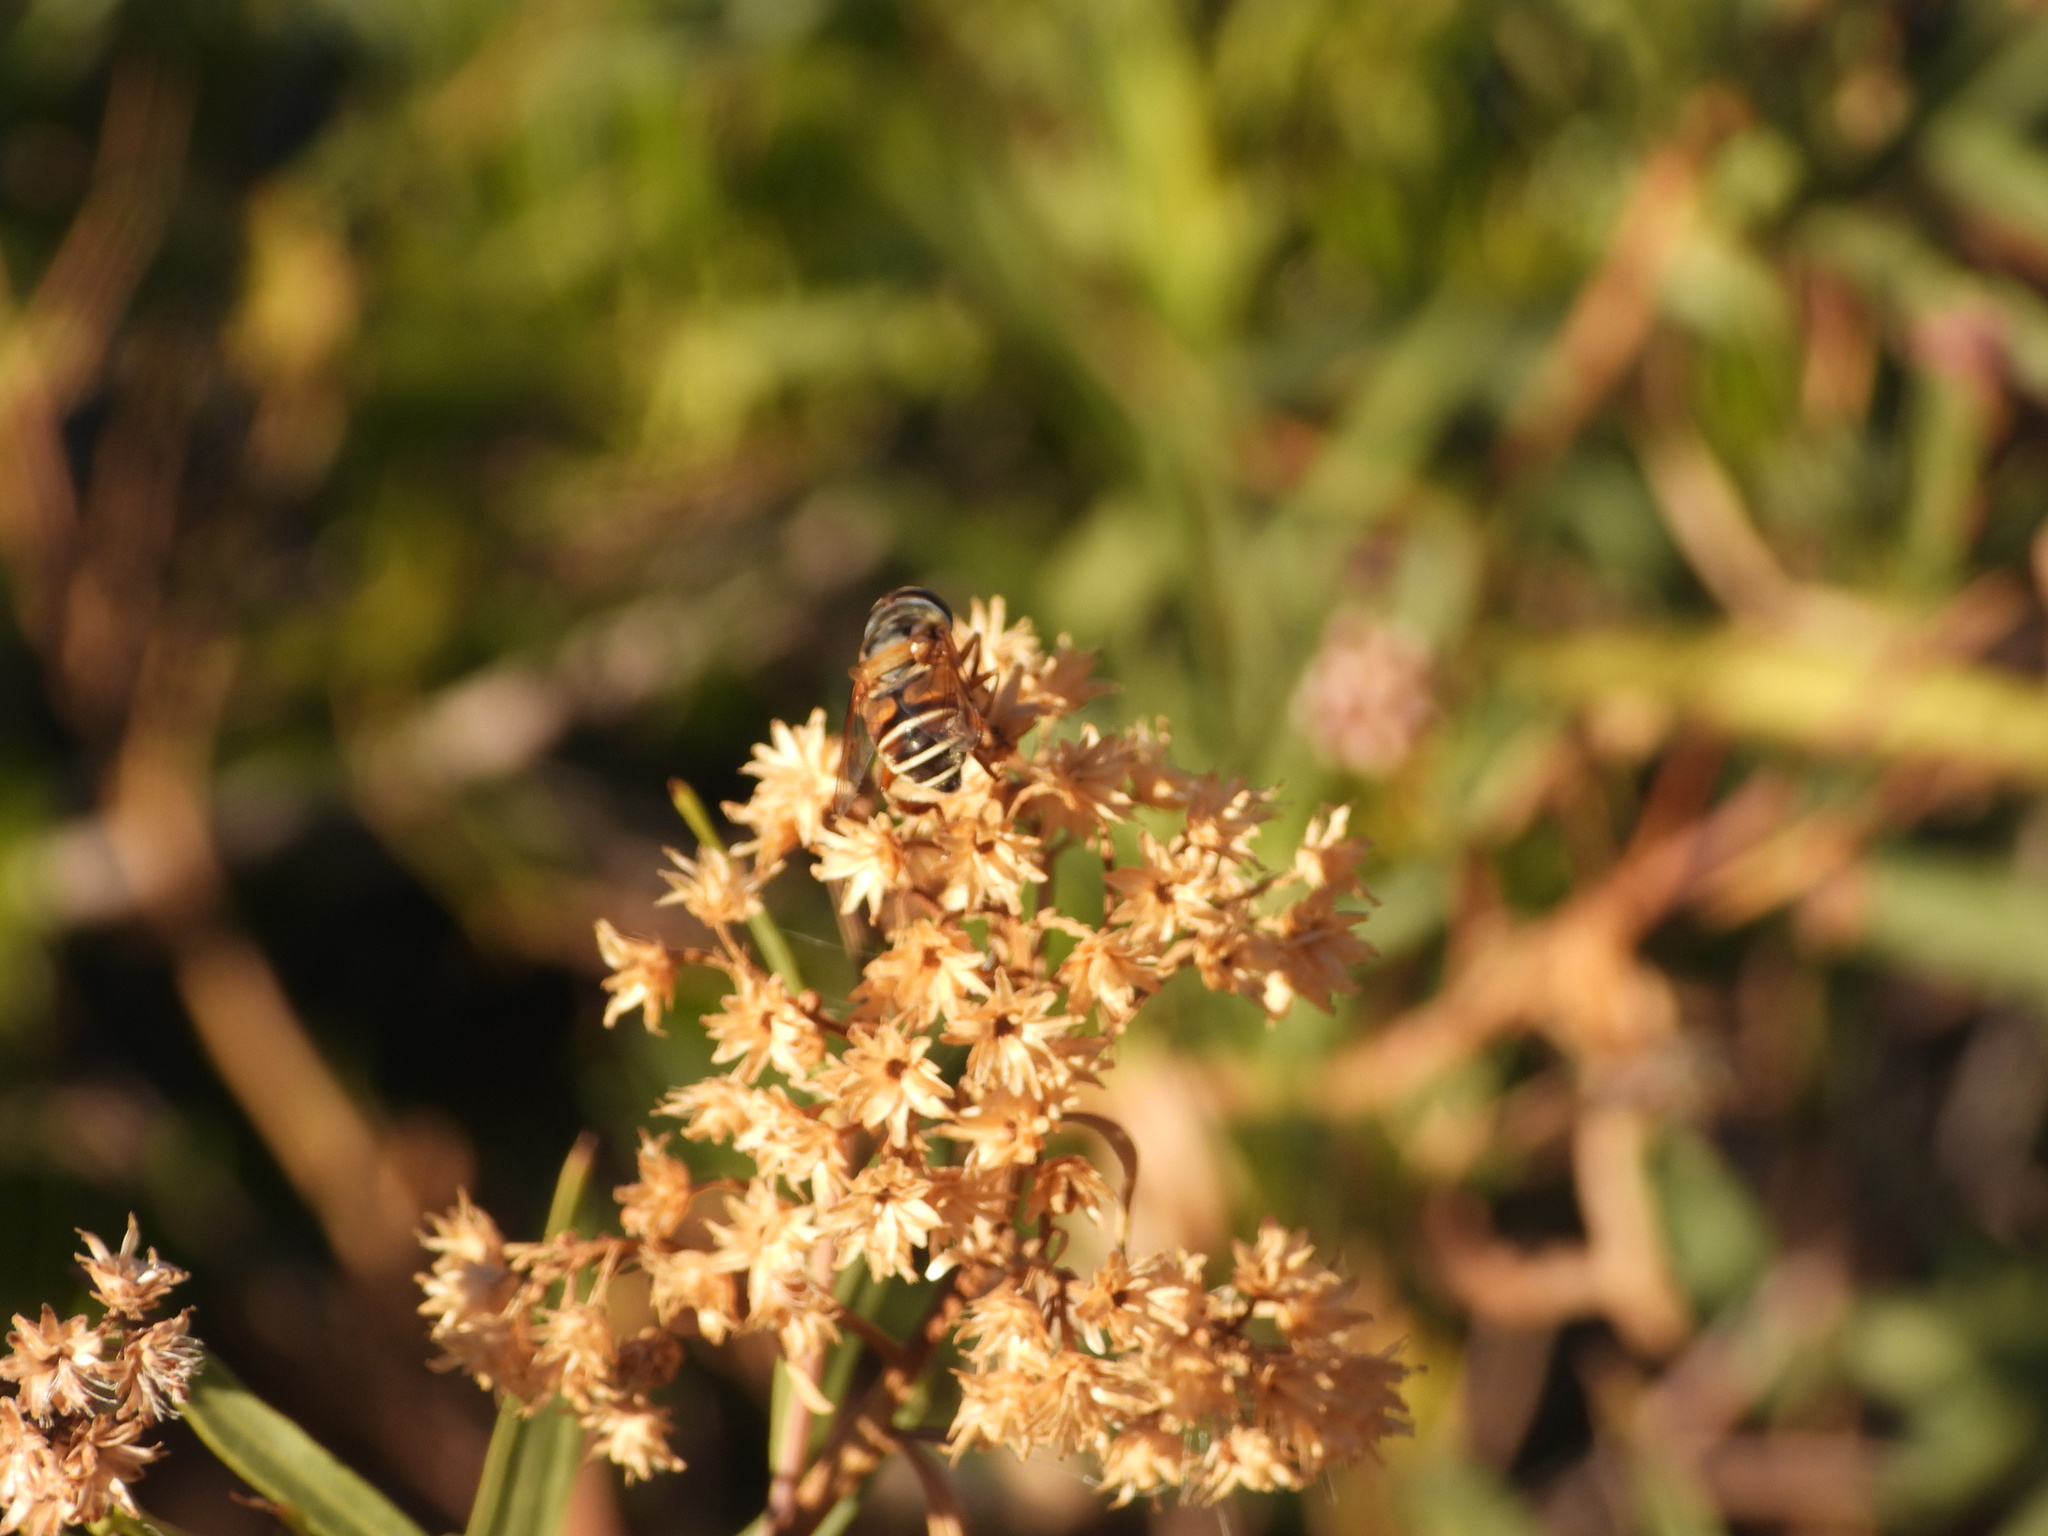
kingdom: Animalia
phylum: Arthropoda
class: Insecta
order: Diptera
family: Syrphidae
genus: Palpada
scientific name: Palpada vinetorum
